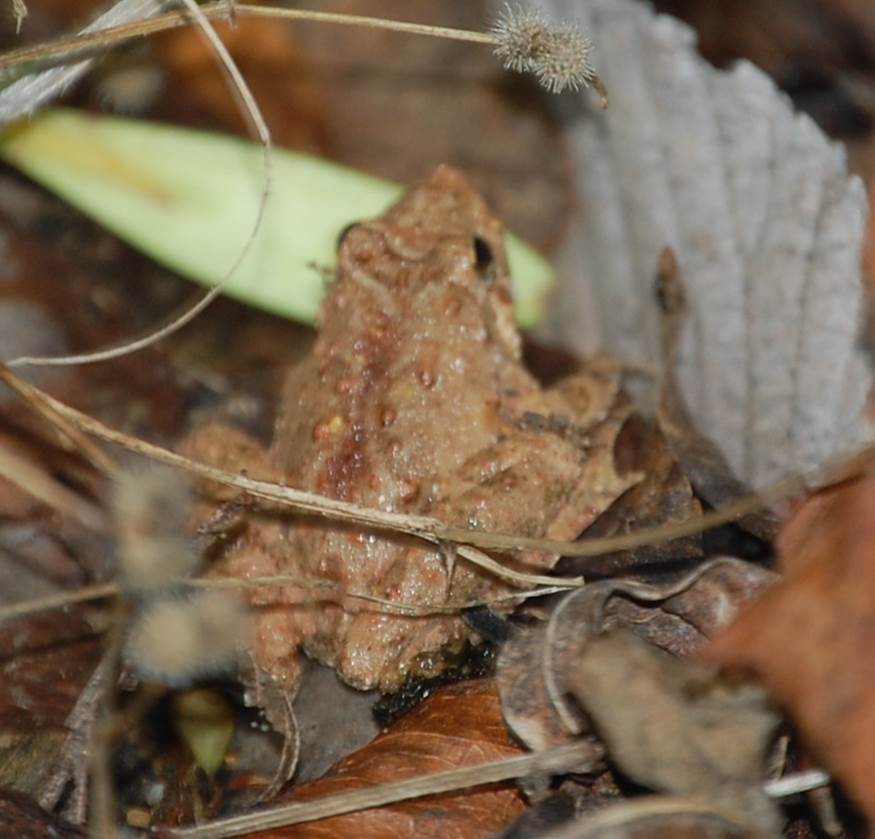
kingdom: Animalia
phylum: Chordata
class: Amphibia
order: Anura
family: Hylidae
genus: Acris
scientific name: Acris blanchardi
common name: Blanchard's cricket frog
